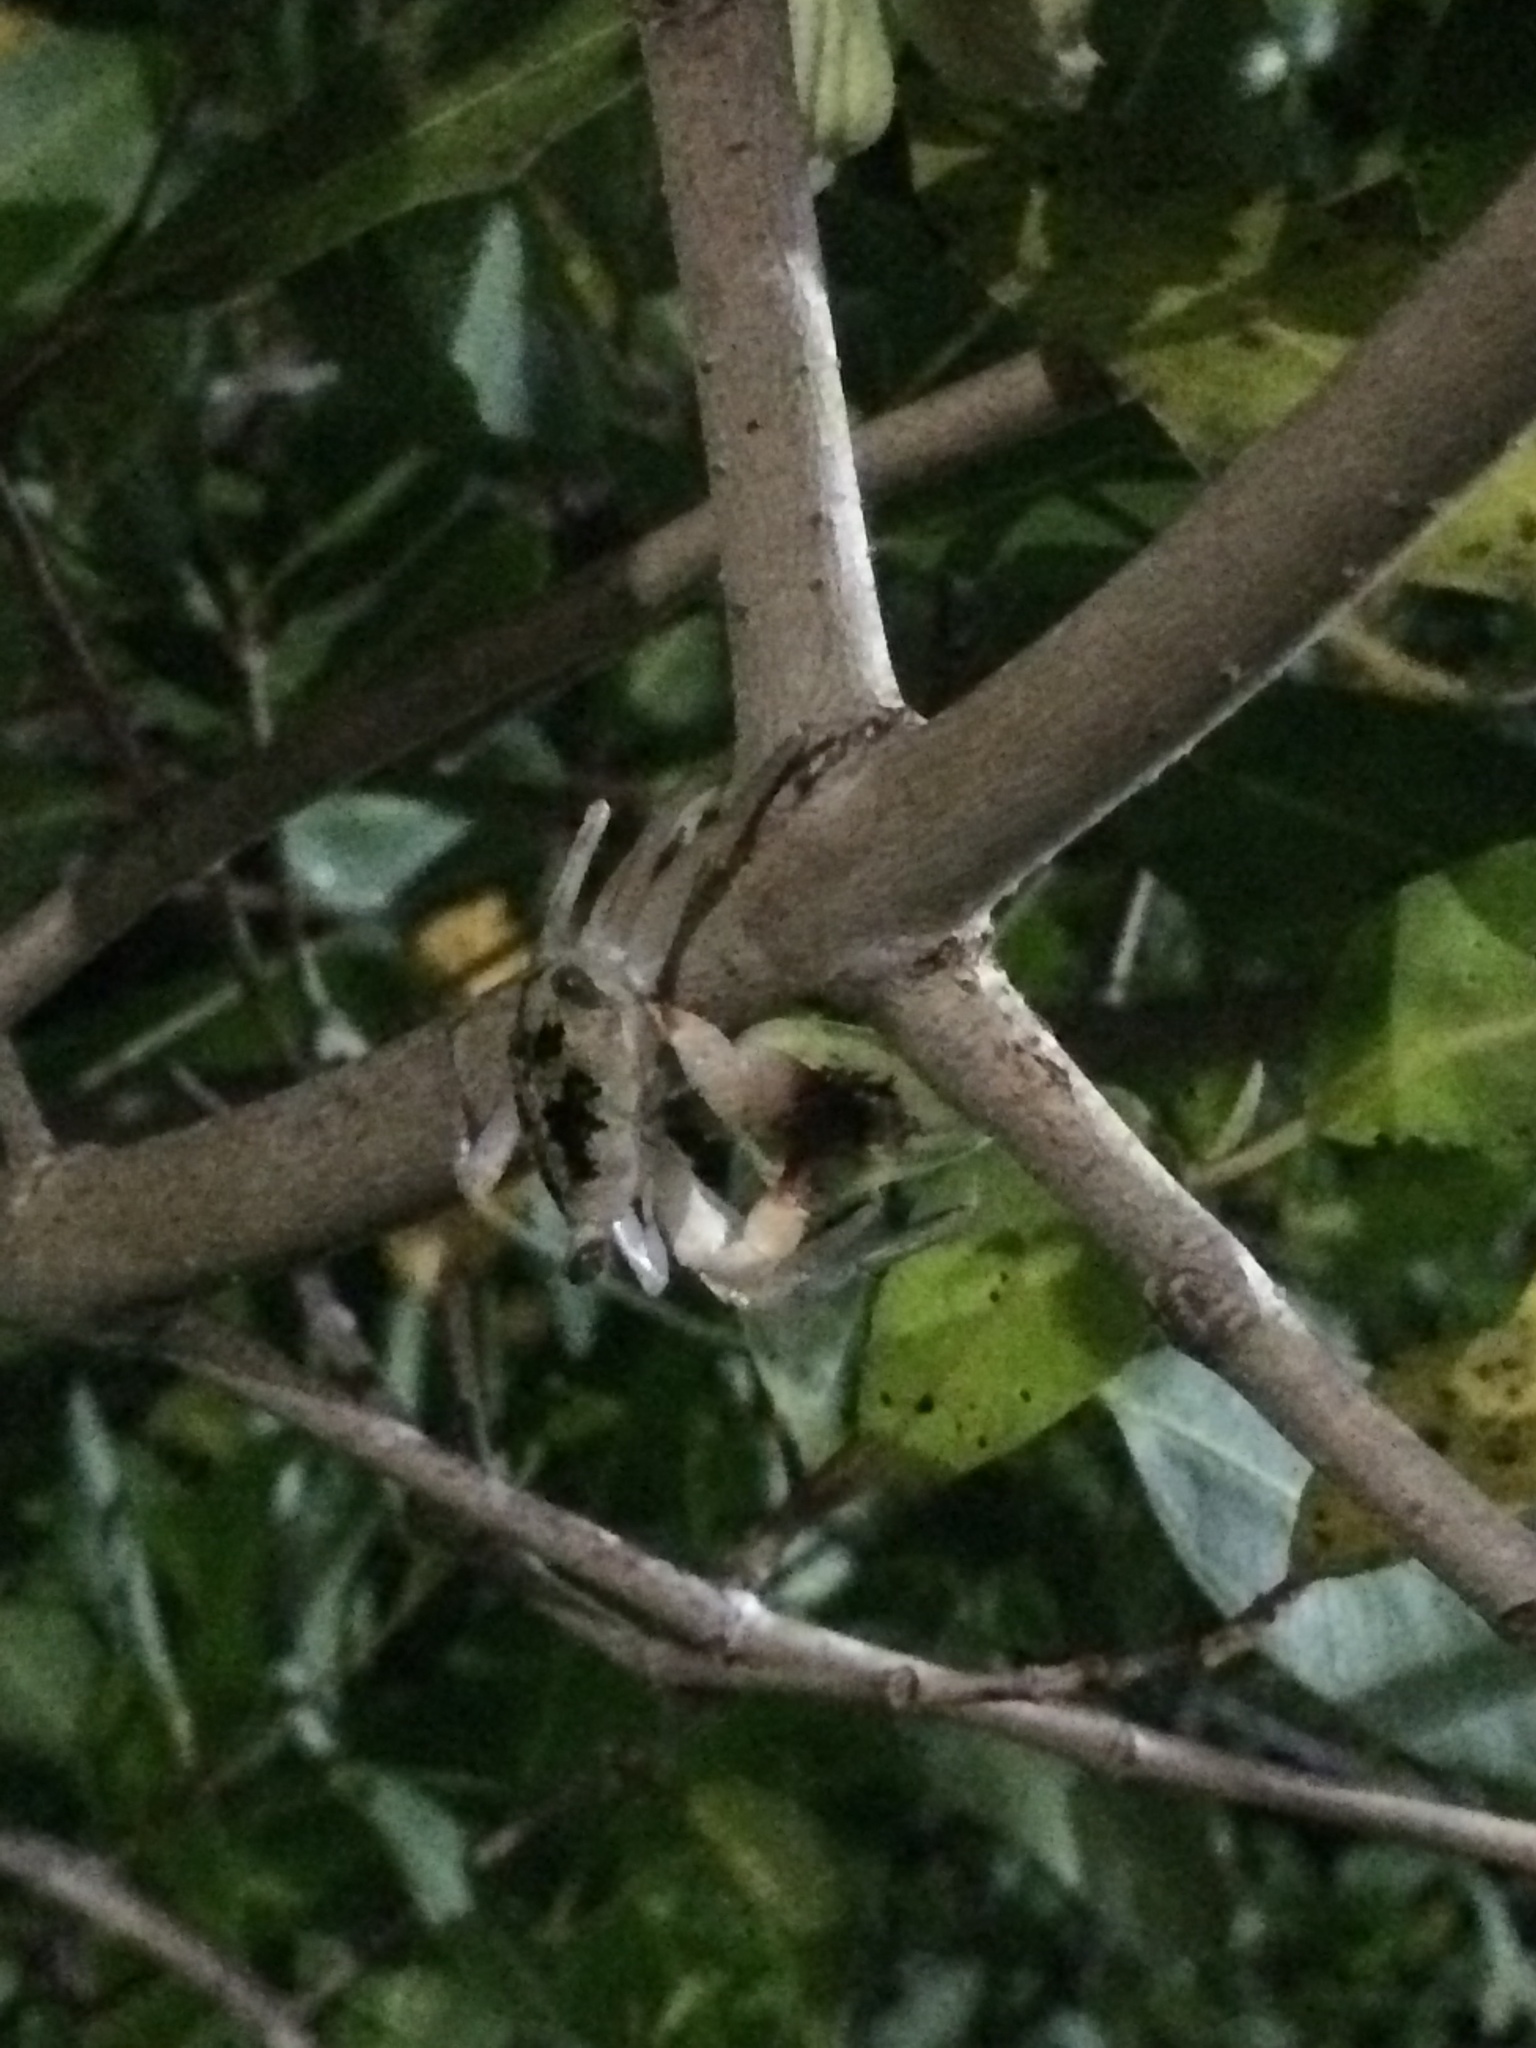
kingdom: Animalia
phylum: Arthropoda
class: Malacostraca
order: Decapoda
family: Sesarmidae
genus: Aratus
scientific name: Aratus pisonii
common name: Mangrove crab
